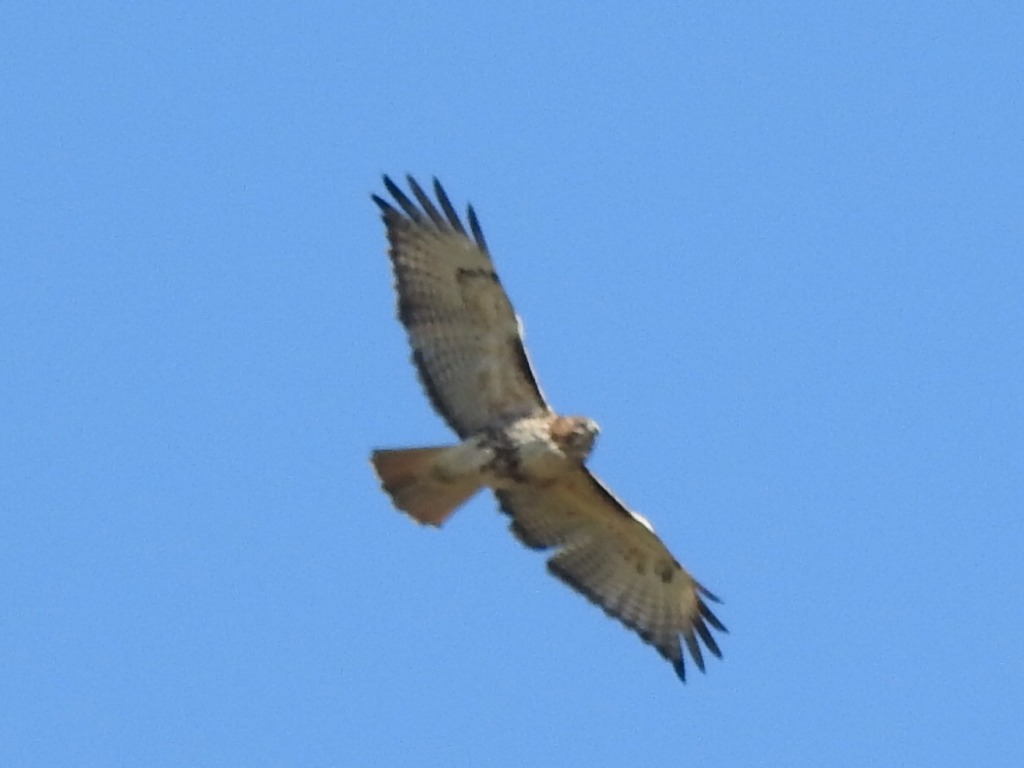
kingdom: Animalia
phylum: Chordata
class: Aves
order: Accipitriformes
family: Accipitridae
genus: Buteo
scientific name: Buteo jamaicensis
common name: Red-tailed hawk
